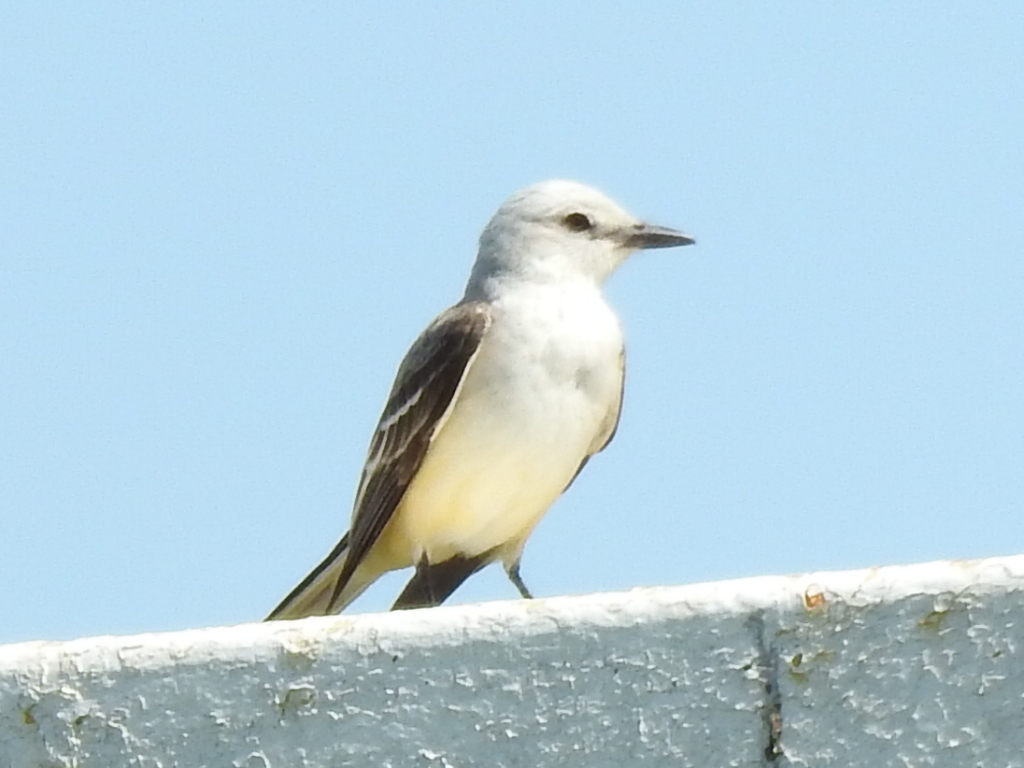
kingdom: Animalia
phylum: Chordata
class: Aves
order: Passeriformes
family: Tyrannidae
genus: Tyrannus
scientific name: Tyrannus forficatus
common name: Scissor-tailed flycatcher
